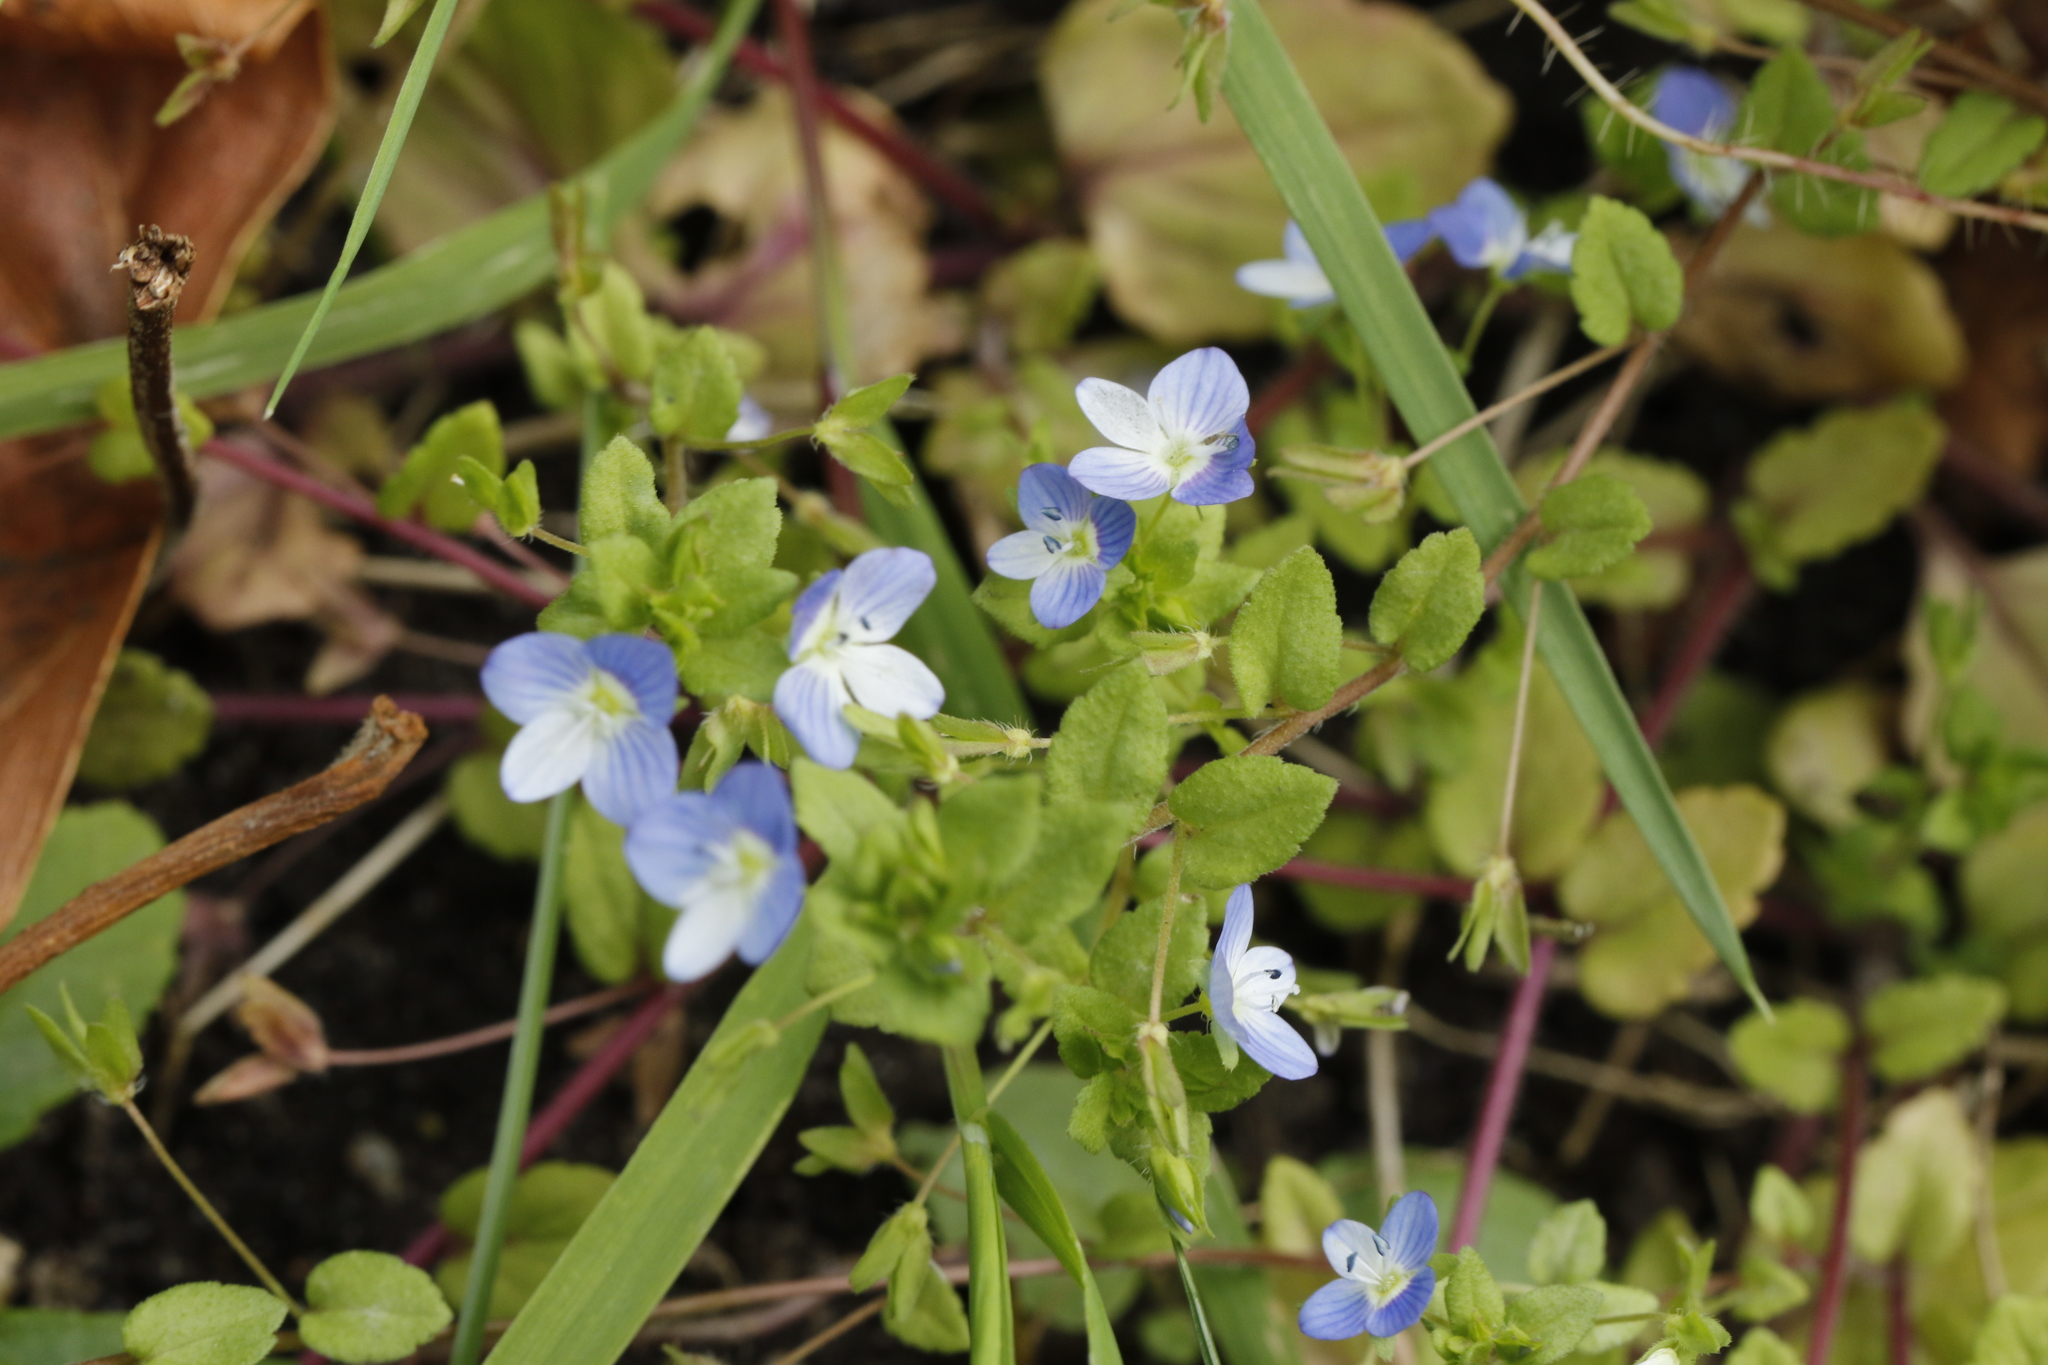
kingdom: Plantae
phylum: Tracheophyta
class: Magnoliopsida
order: Lamiales
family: Plantaginaceae
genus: Veronica
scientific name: Veronica persica
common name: Common field-speedwell
